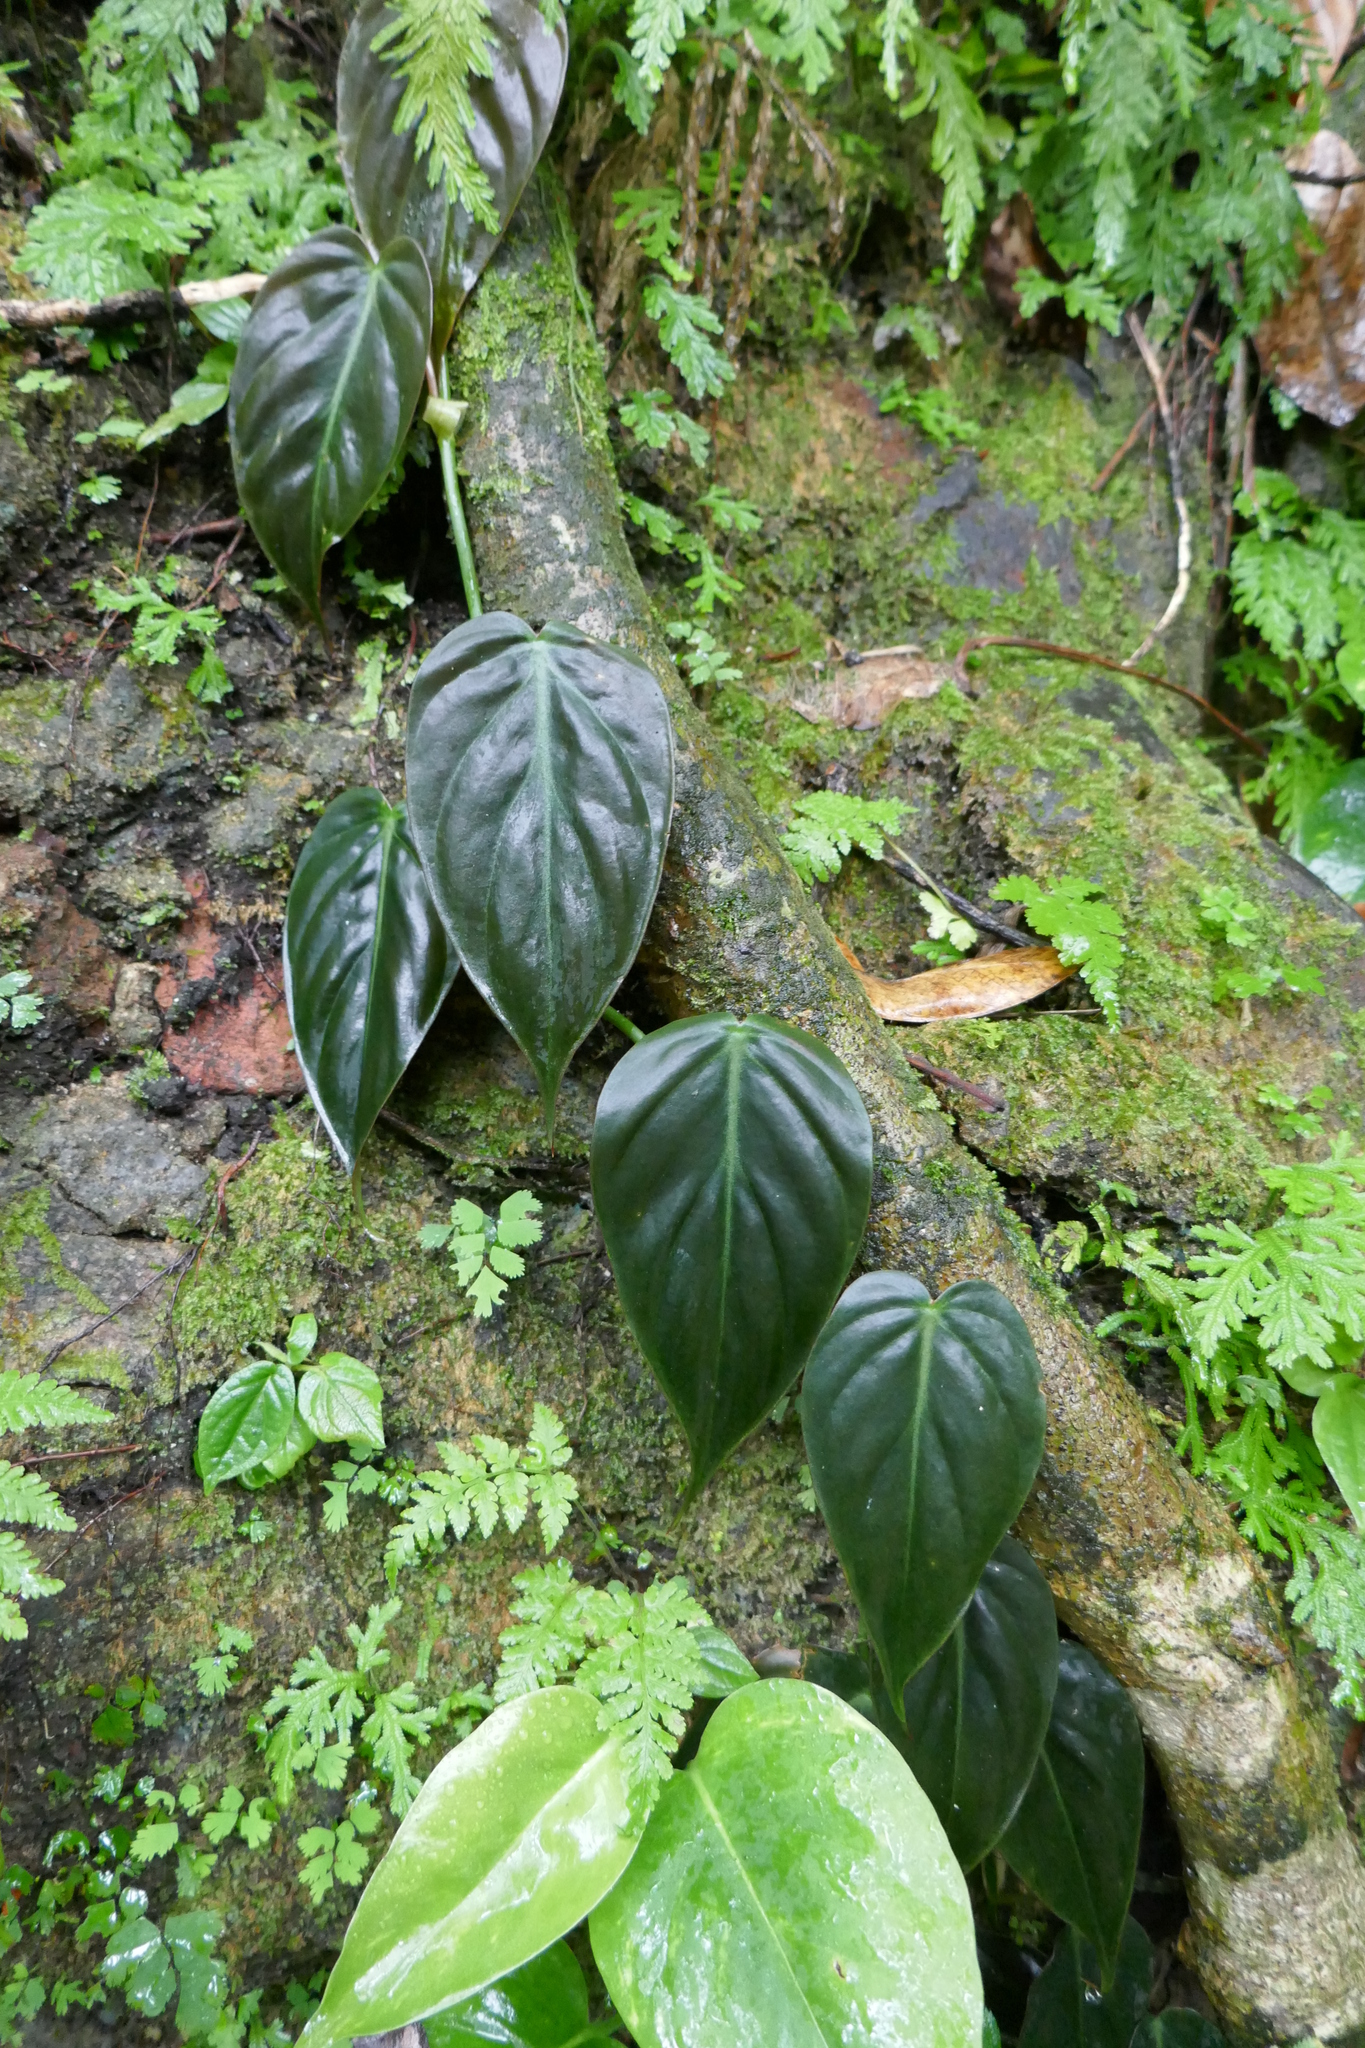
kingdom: Plantae
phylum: Tracheophyta
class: Liliopsida
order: Alismatales
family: Araceae
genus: Philodendron
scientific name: Philodendron hederaceum
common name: Vilevine
